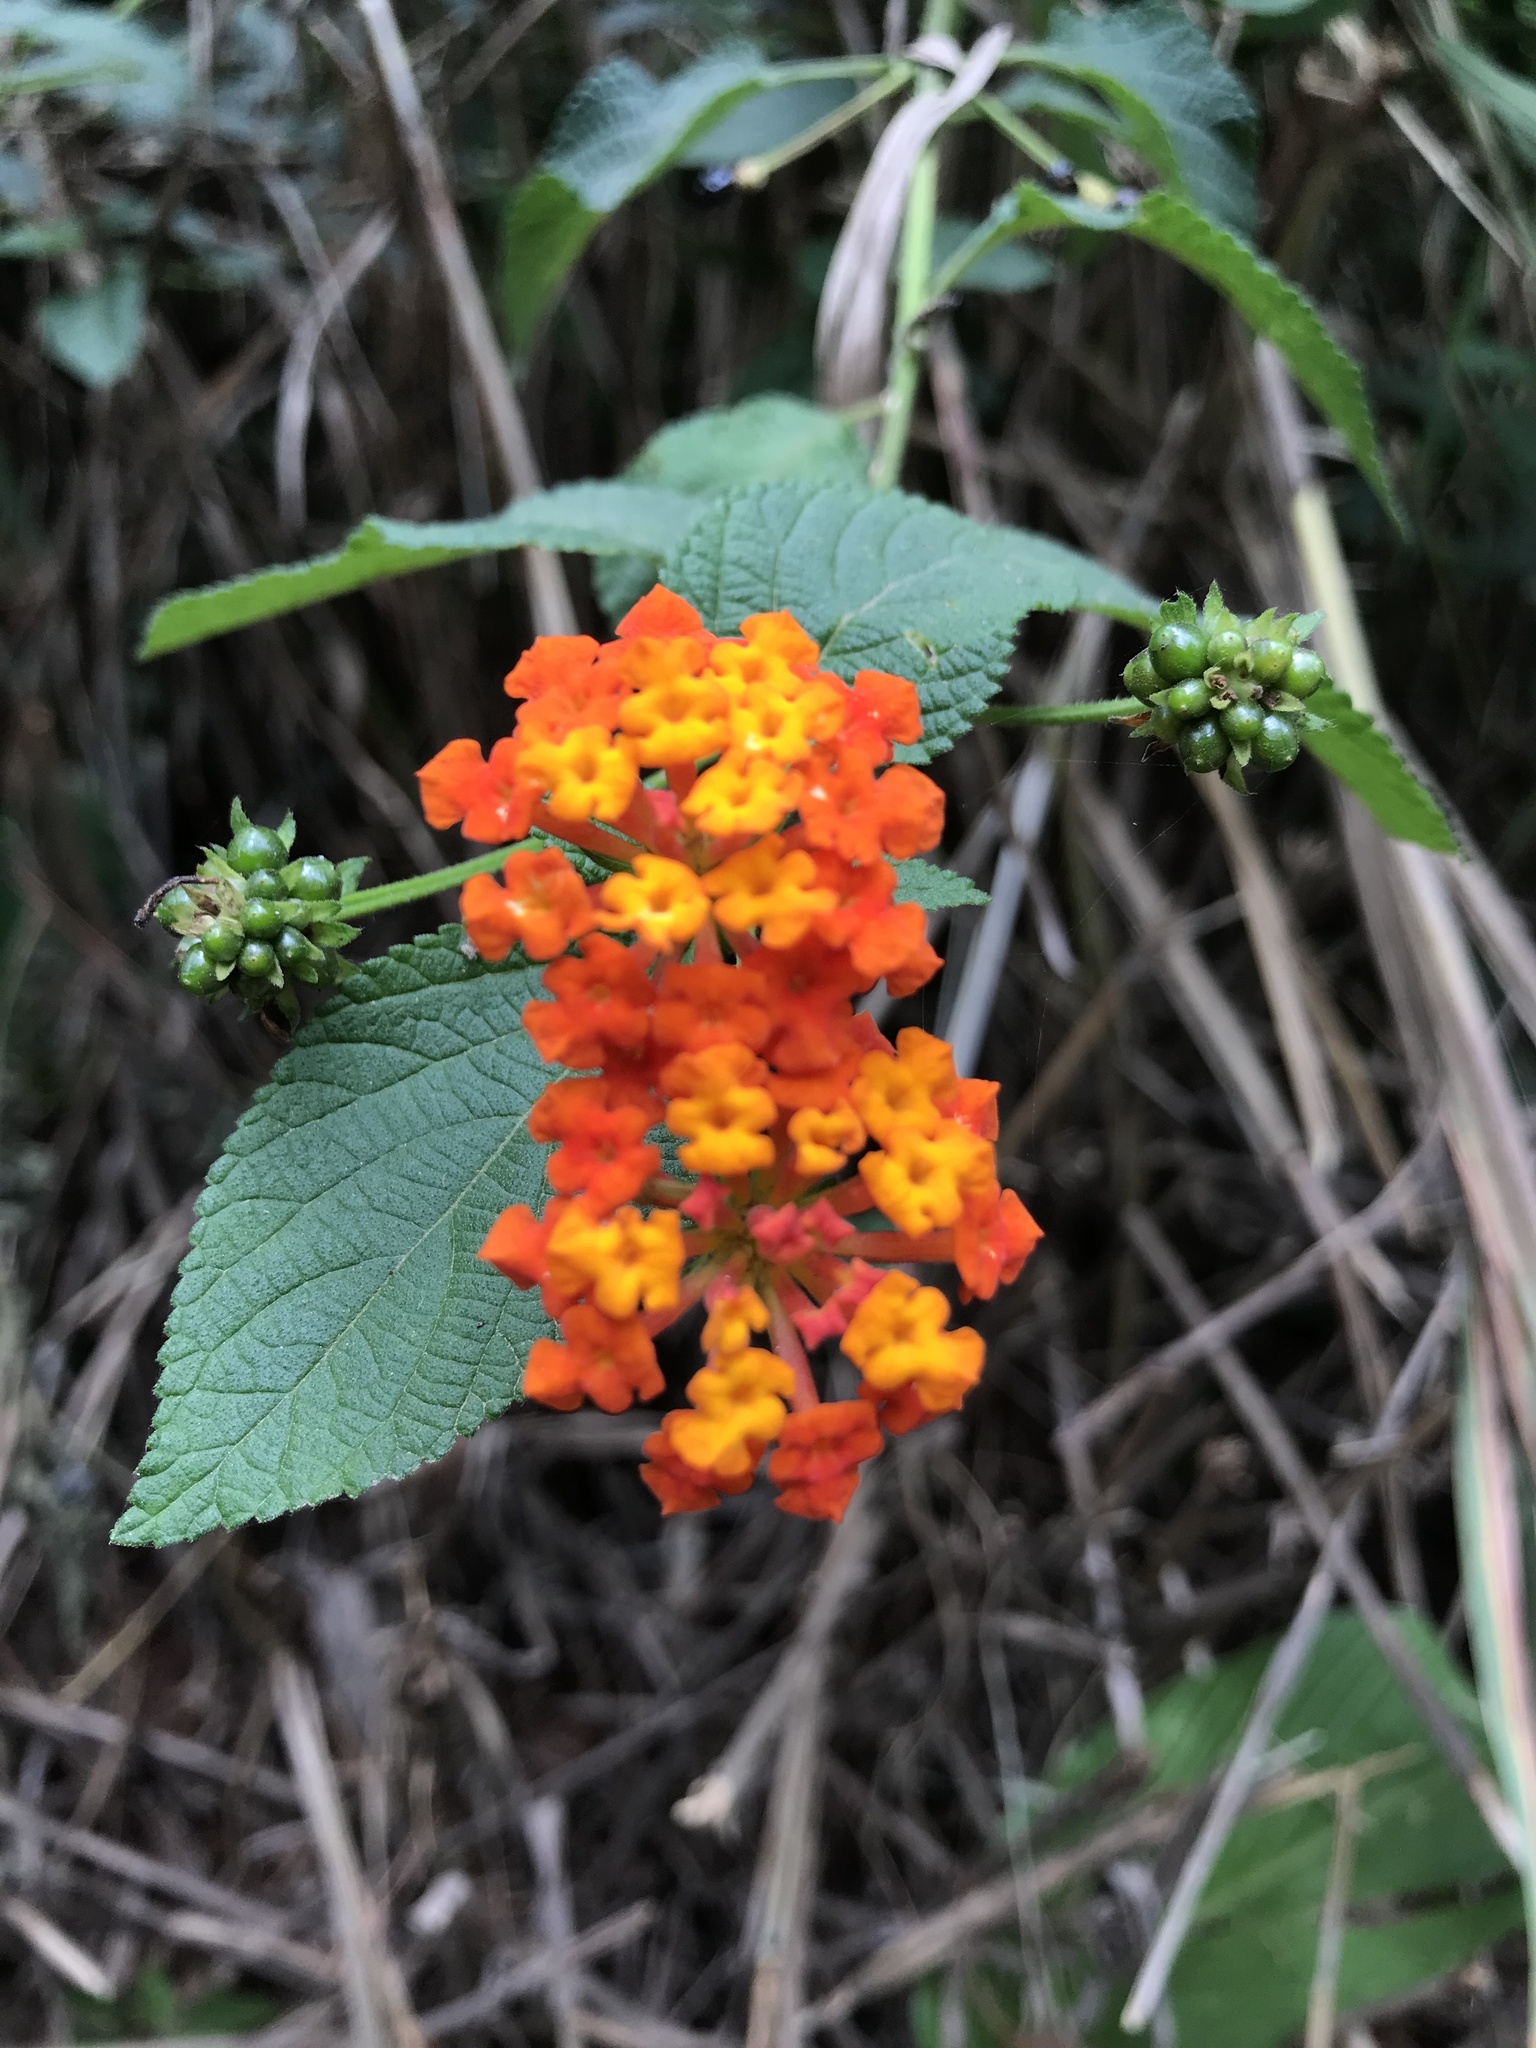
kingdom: Plantae
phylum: Tracheophyta
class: Magnoliopsida
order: Lamiales
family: Verbenaceae
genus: Lantana
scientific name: Lantana camara
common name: Lantana
